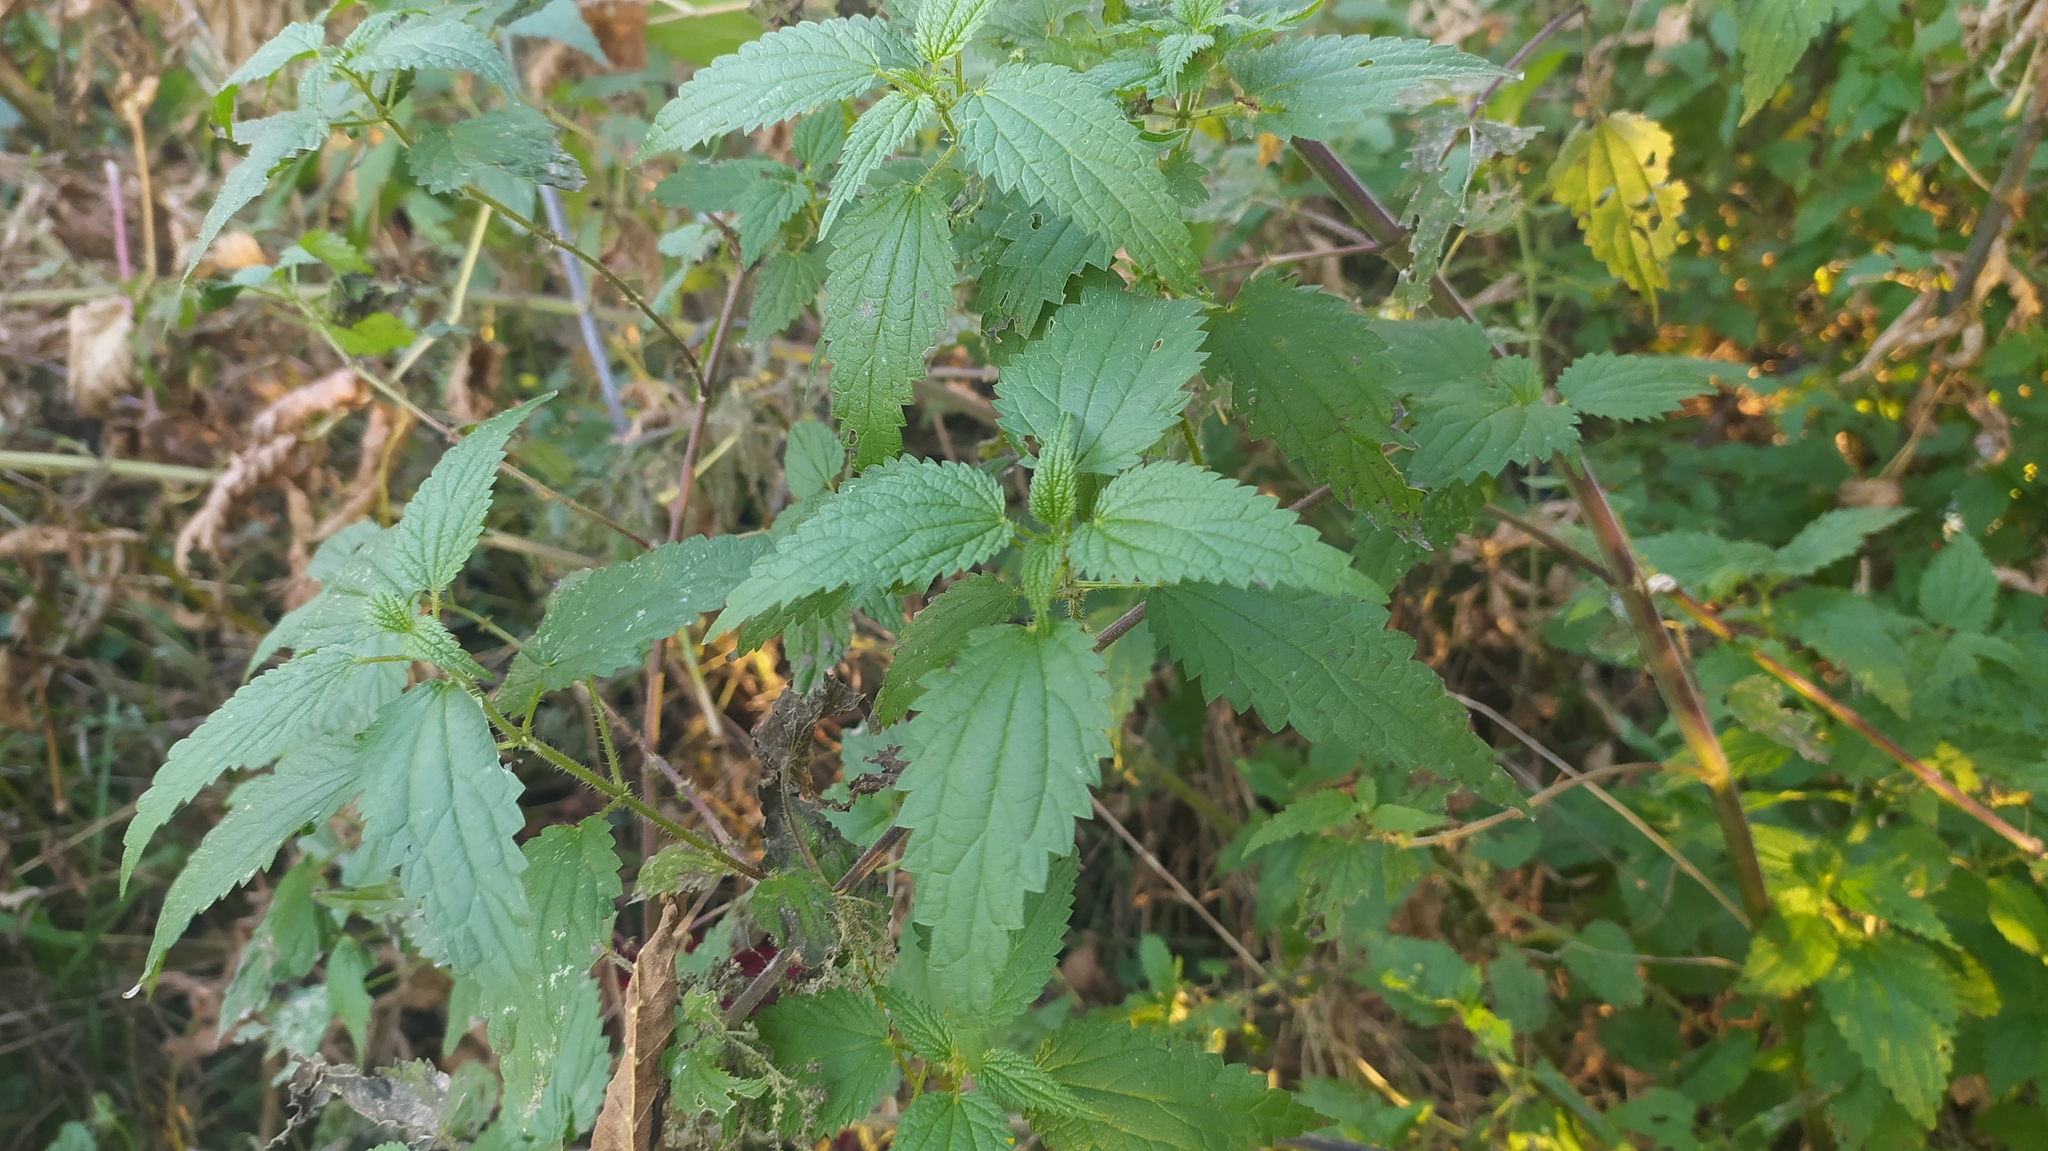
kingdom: Plantae
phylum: Tracheophyta
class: Magnoliopsida
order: Rosales
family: Urticaceae
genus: Urtica
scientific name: Urtica dioica
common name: Common nettle
